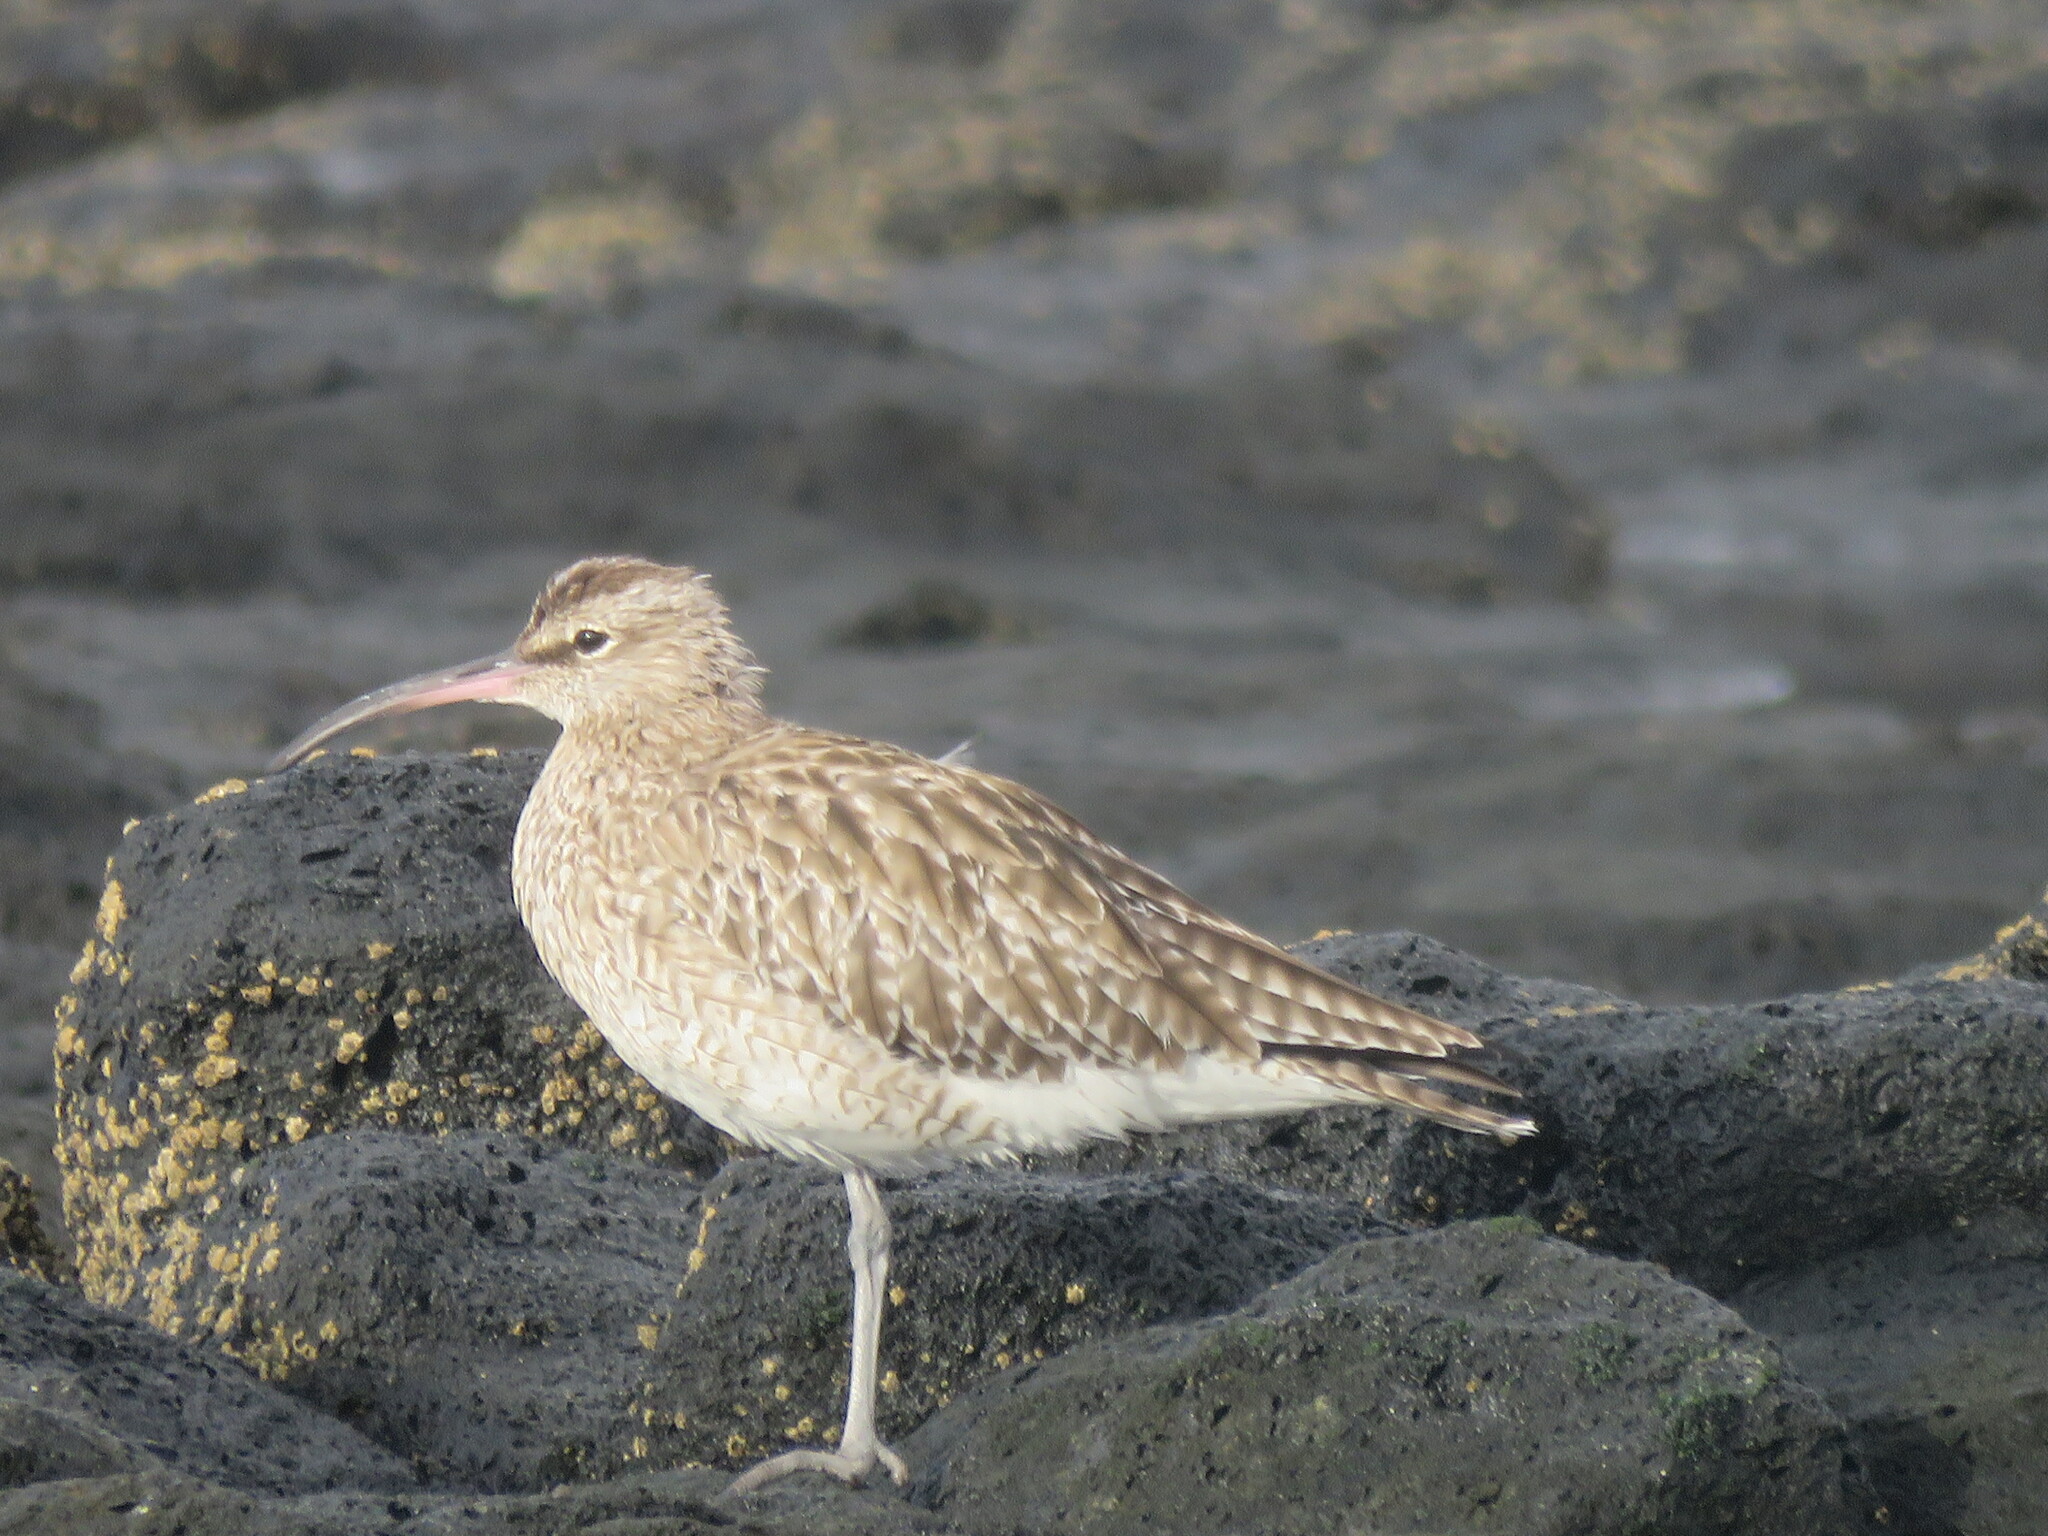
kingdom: Animalia
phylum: Chordata
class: Aves
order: Charadriiformes
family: Scolopacidae
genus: Numenius
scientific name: Numenius phaeopus
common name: Whimbrel
